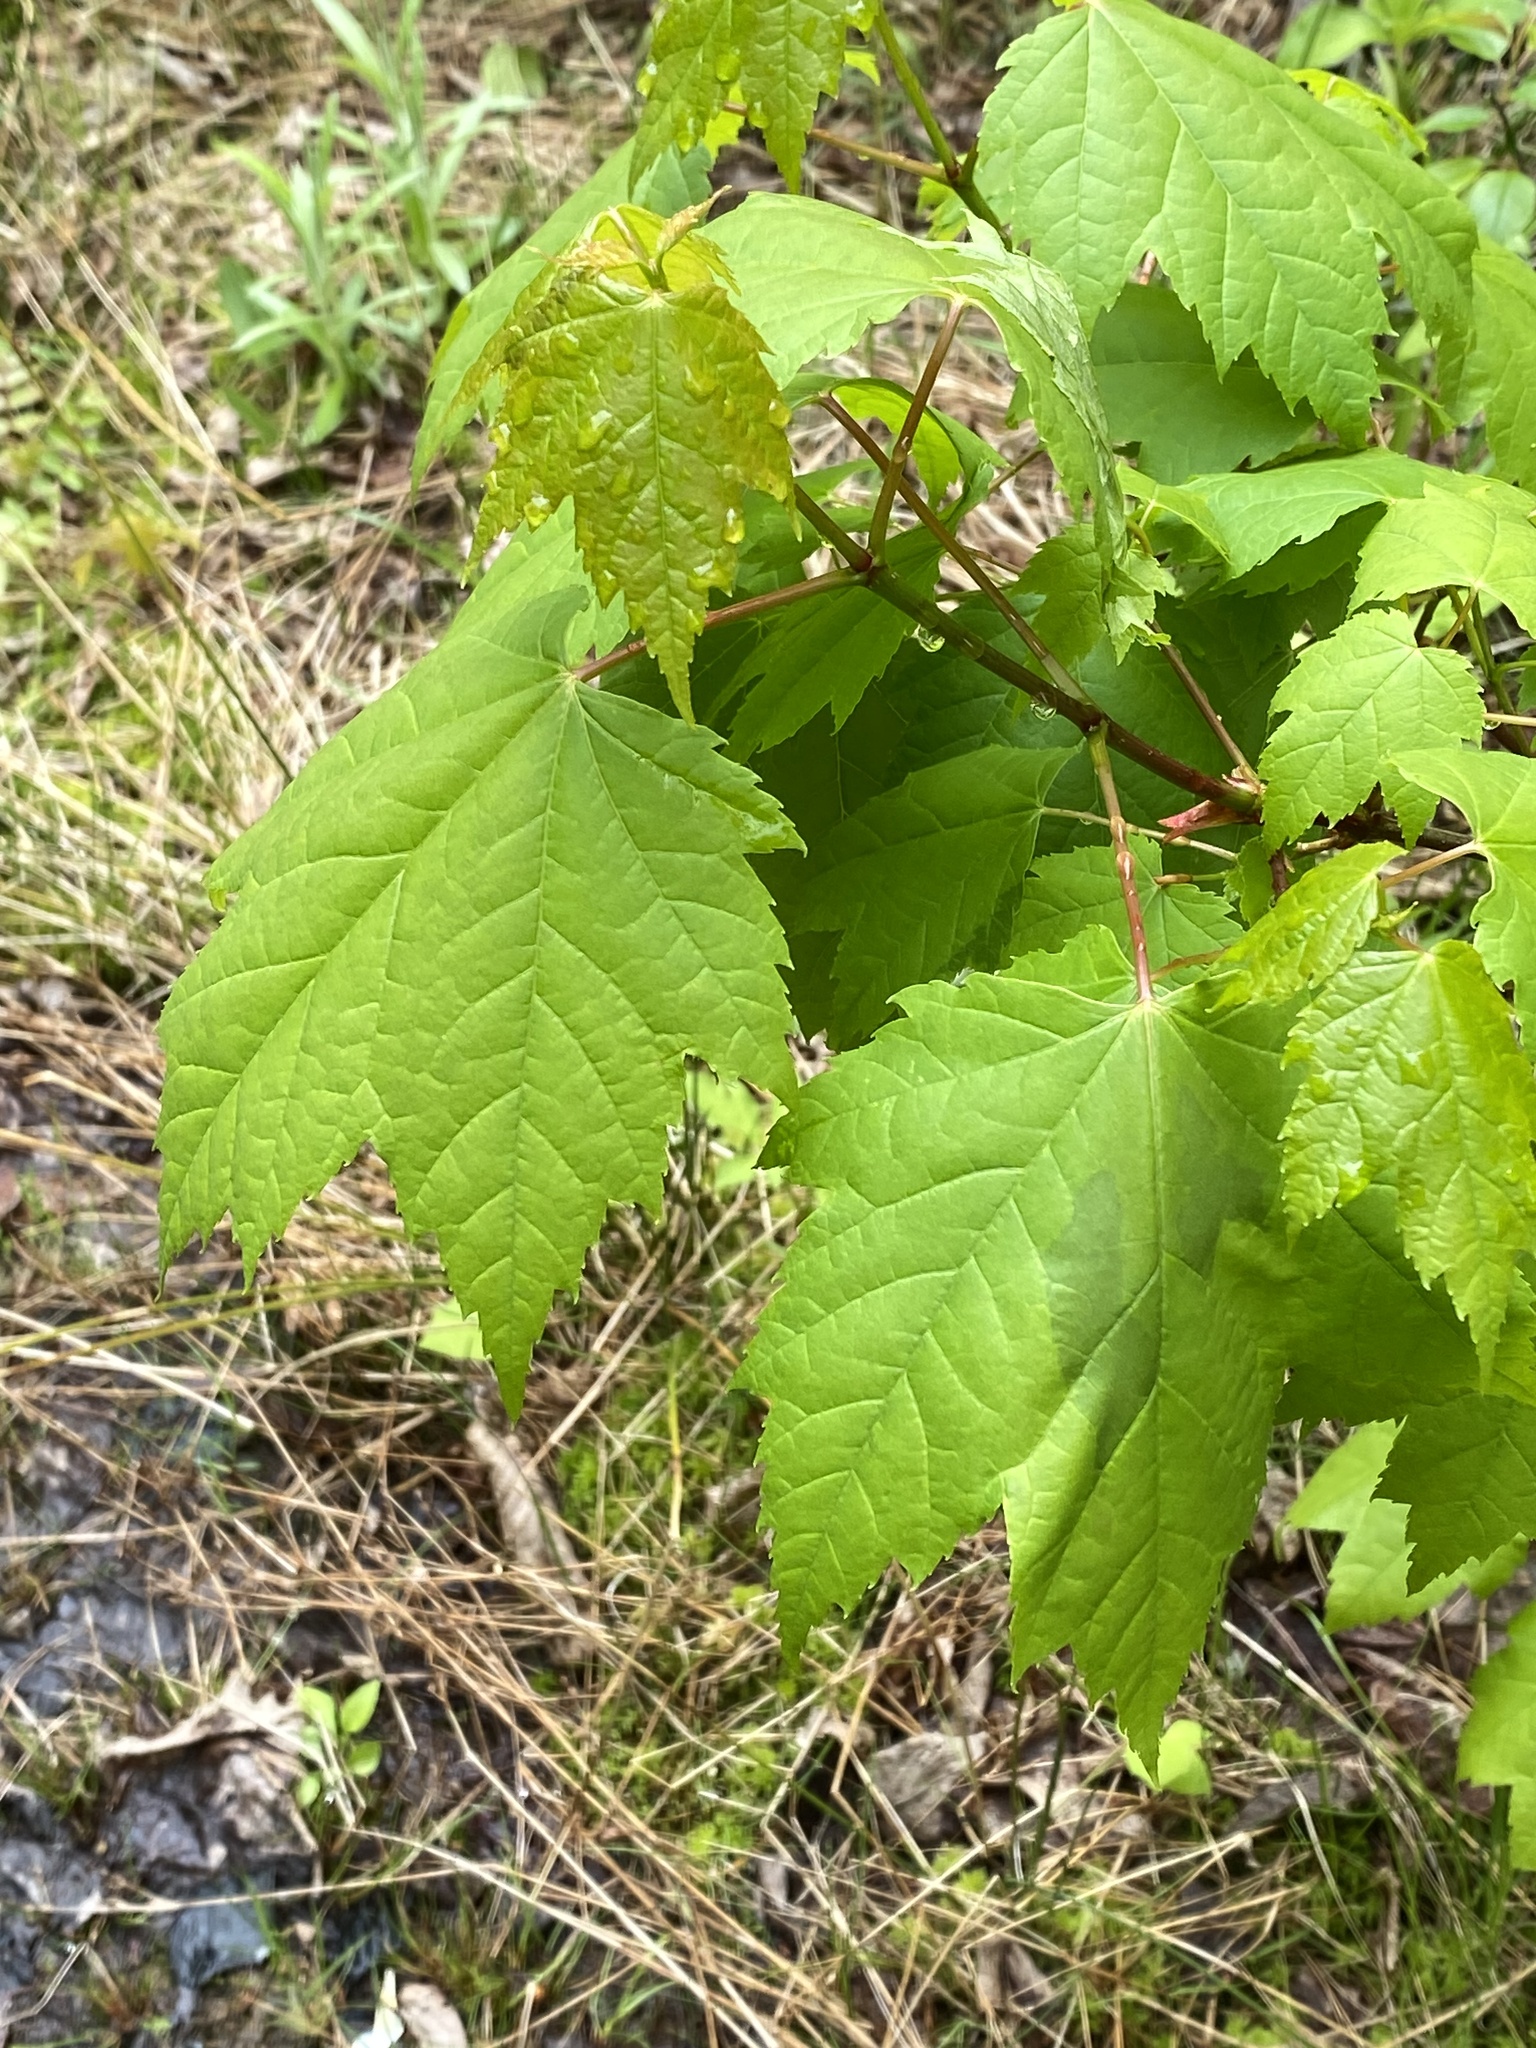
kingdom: Plantae
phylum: Tracheophyta
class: Magnoliopsida
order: Sapindales
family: Sapindaceae
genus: Acer
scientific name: Acer rubrum
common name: Red maple
